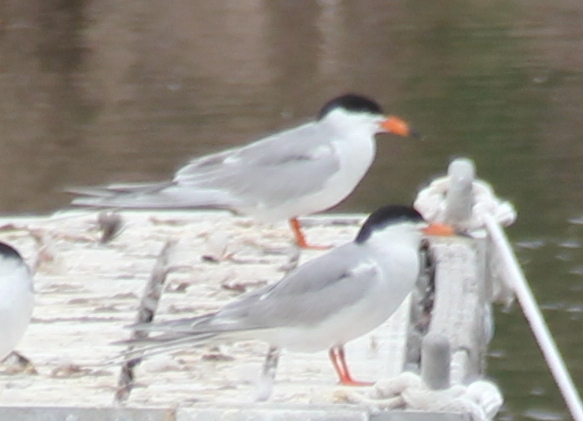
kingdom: Animalia
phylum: Chordata
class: Aves
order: Charadriiformes
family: Laridae
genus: Sterna
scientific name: Sterna forsteri
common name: Forster's tern
